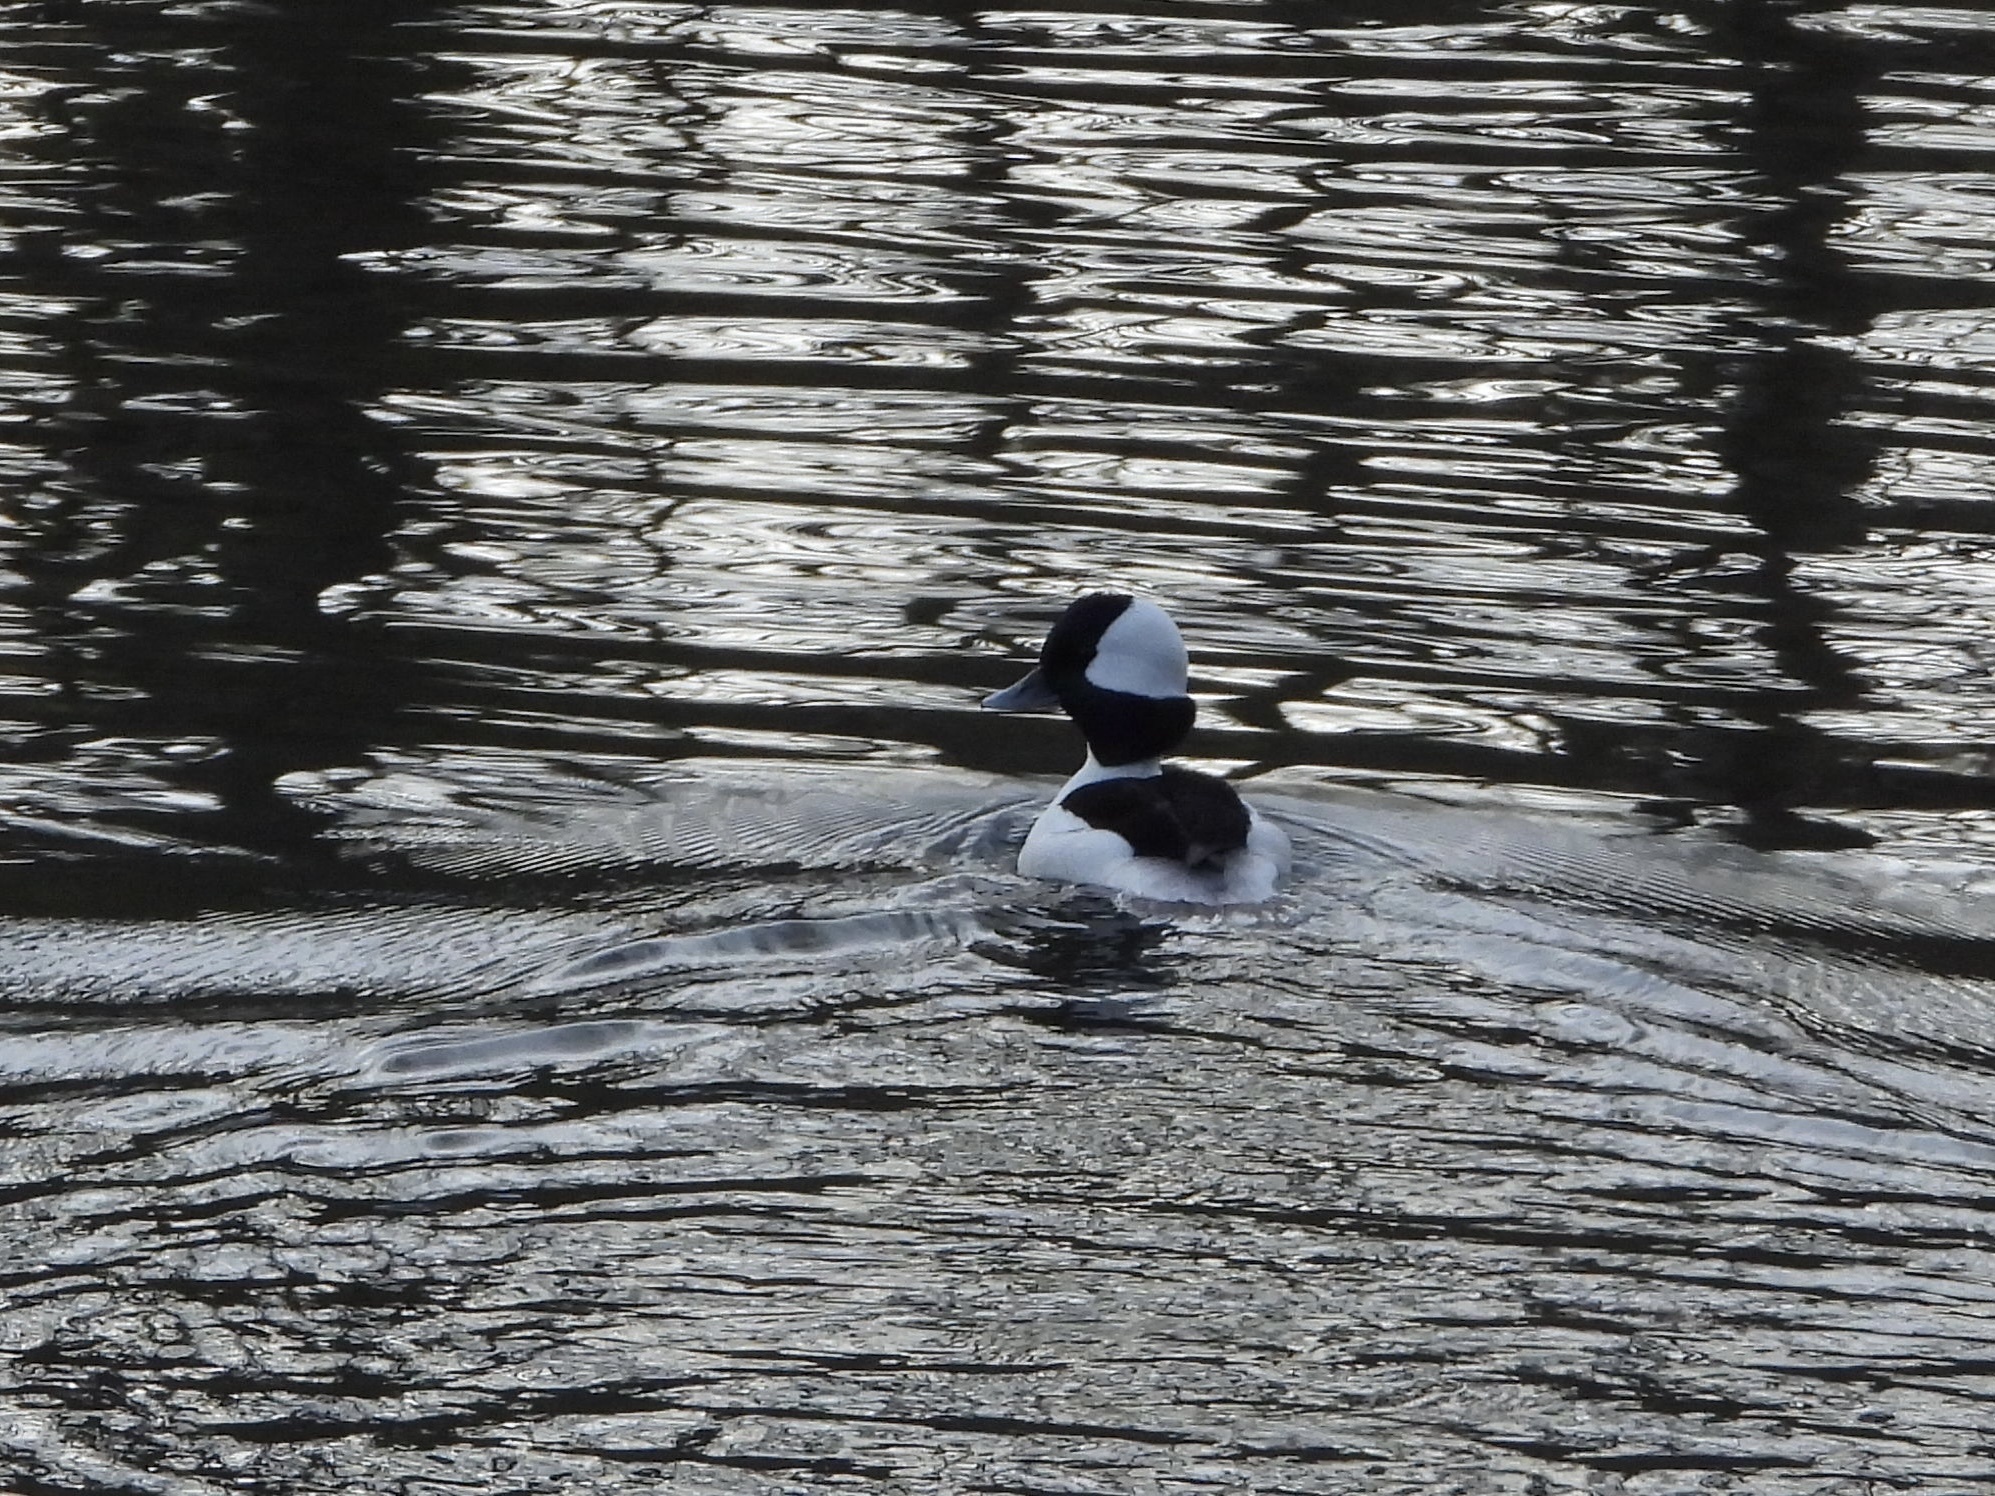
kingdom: Animalia
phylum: Chordata
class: Aves
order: Anseriformes
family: Anatidae
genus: Bucephala
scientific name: Bucephala albeola
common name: Bufflehead
